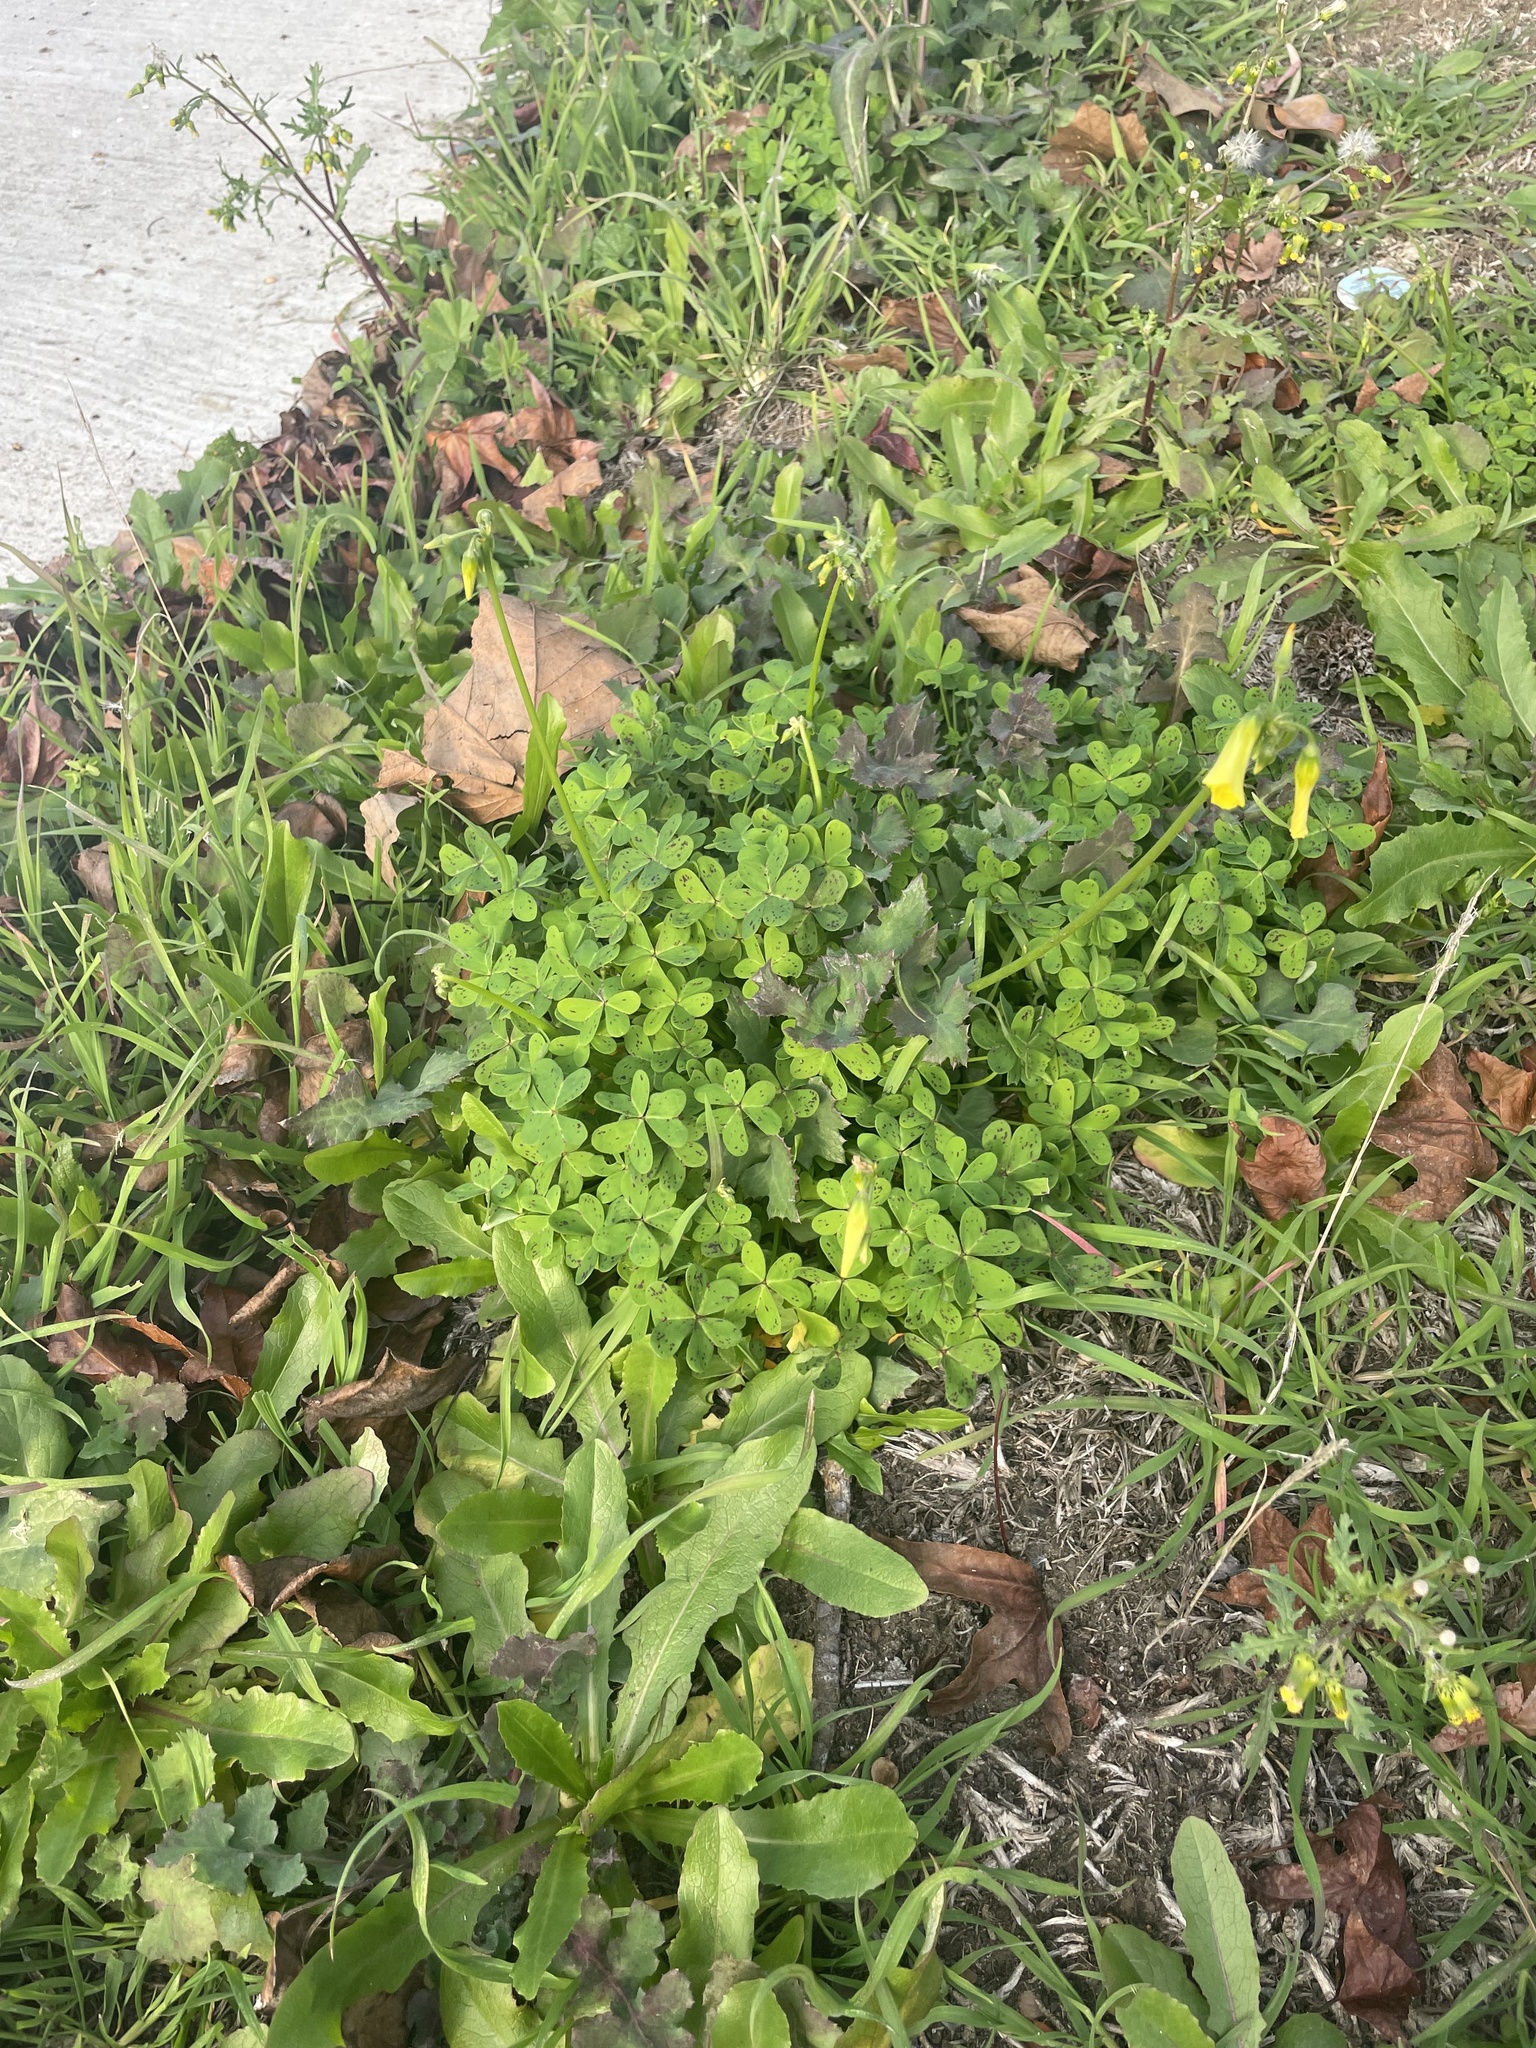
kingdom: Plantae
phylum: Tracheophyta
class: Magnoliopsida
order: Oxalidales
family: Oxalidaceae
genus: Oxalis
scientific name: Oxalis pes-caprae
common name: Bermuda-buttercup
